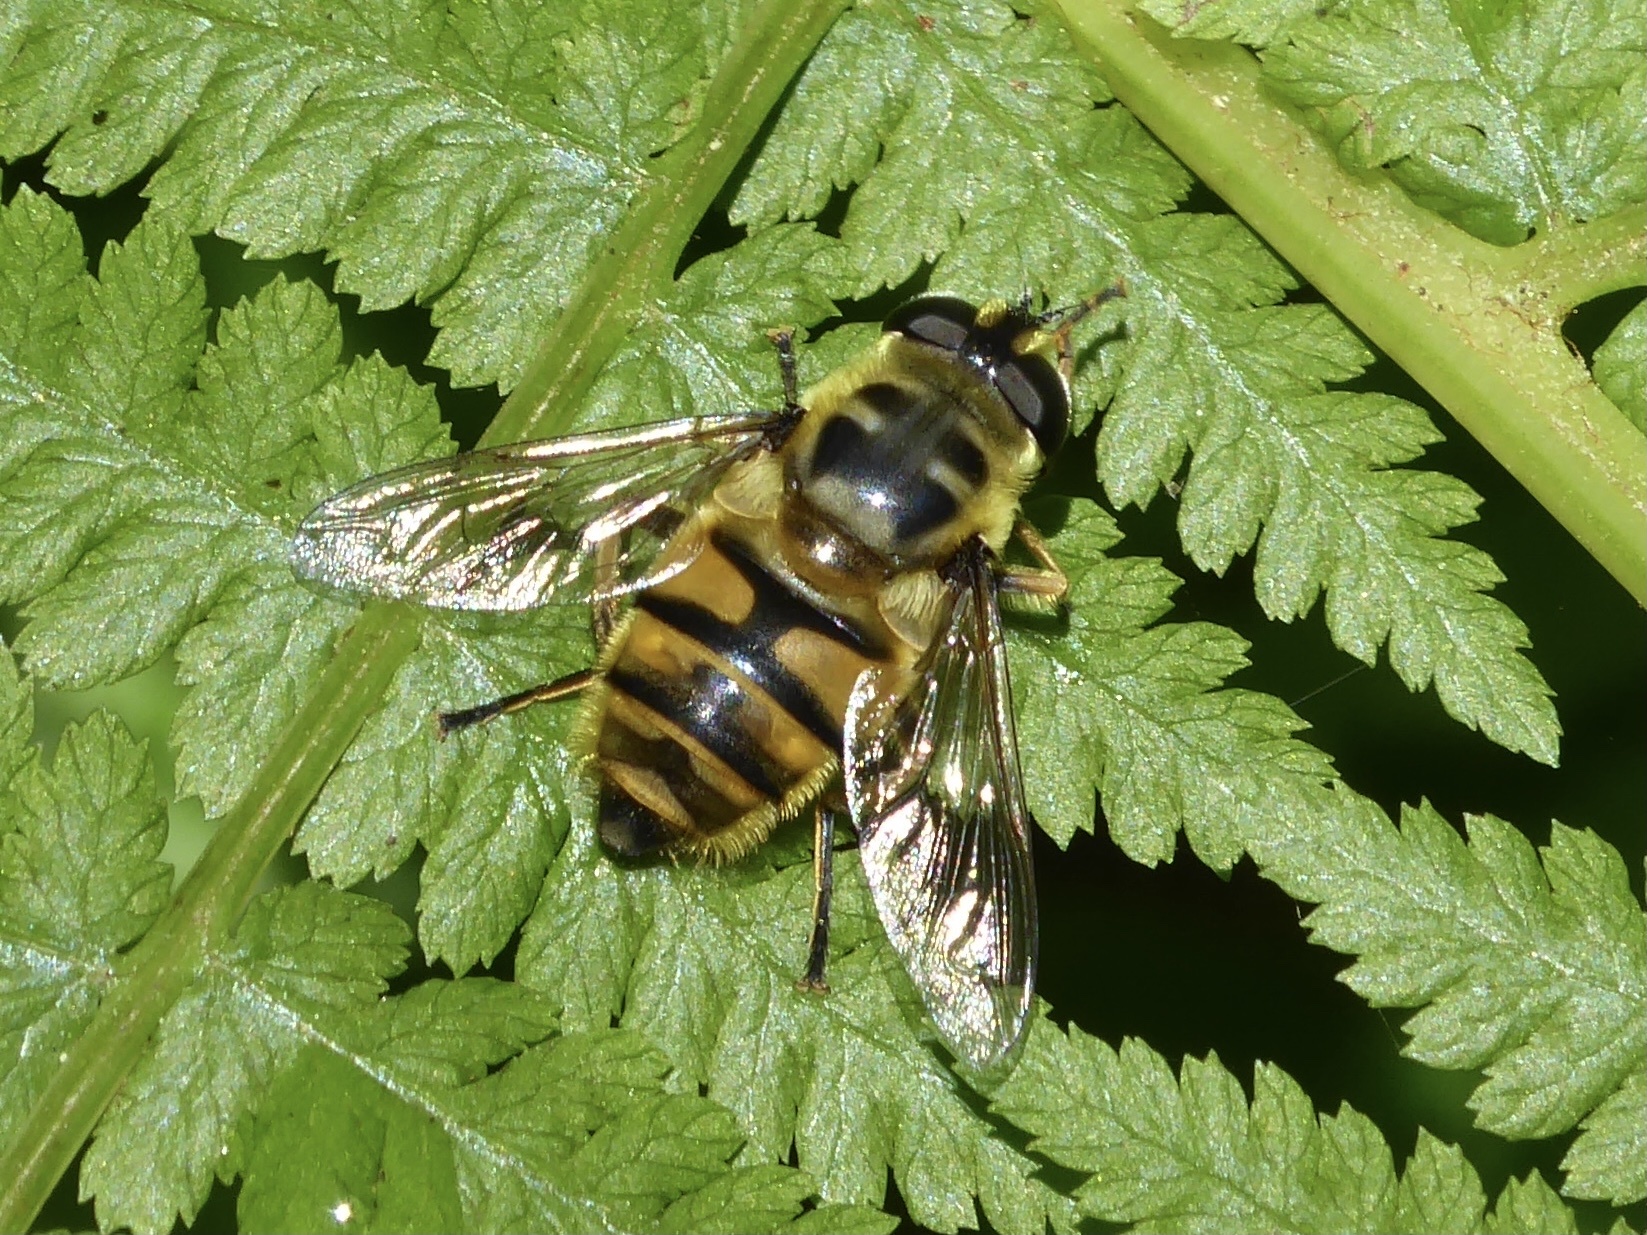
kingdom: Animalia
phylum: Arthropoda
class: Insecta
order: Diptera
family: Syrphidae
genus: Myathropa
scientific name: Myathropa florea
